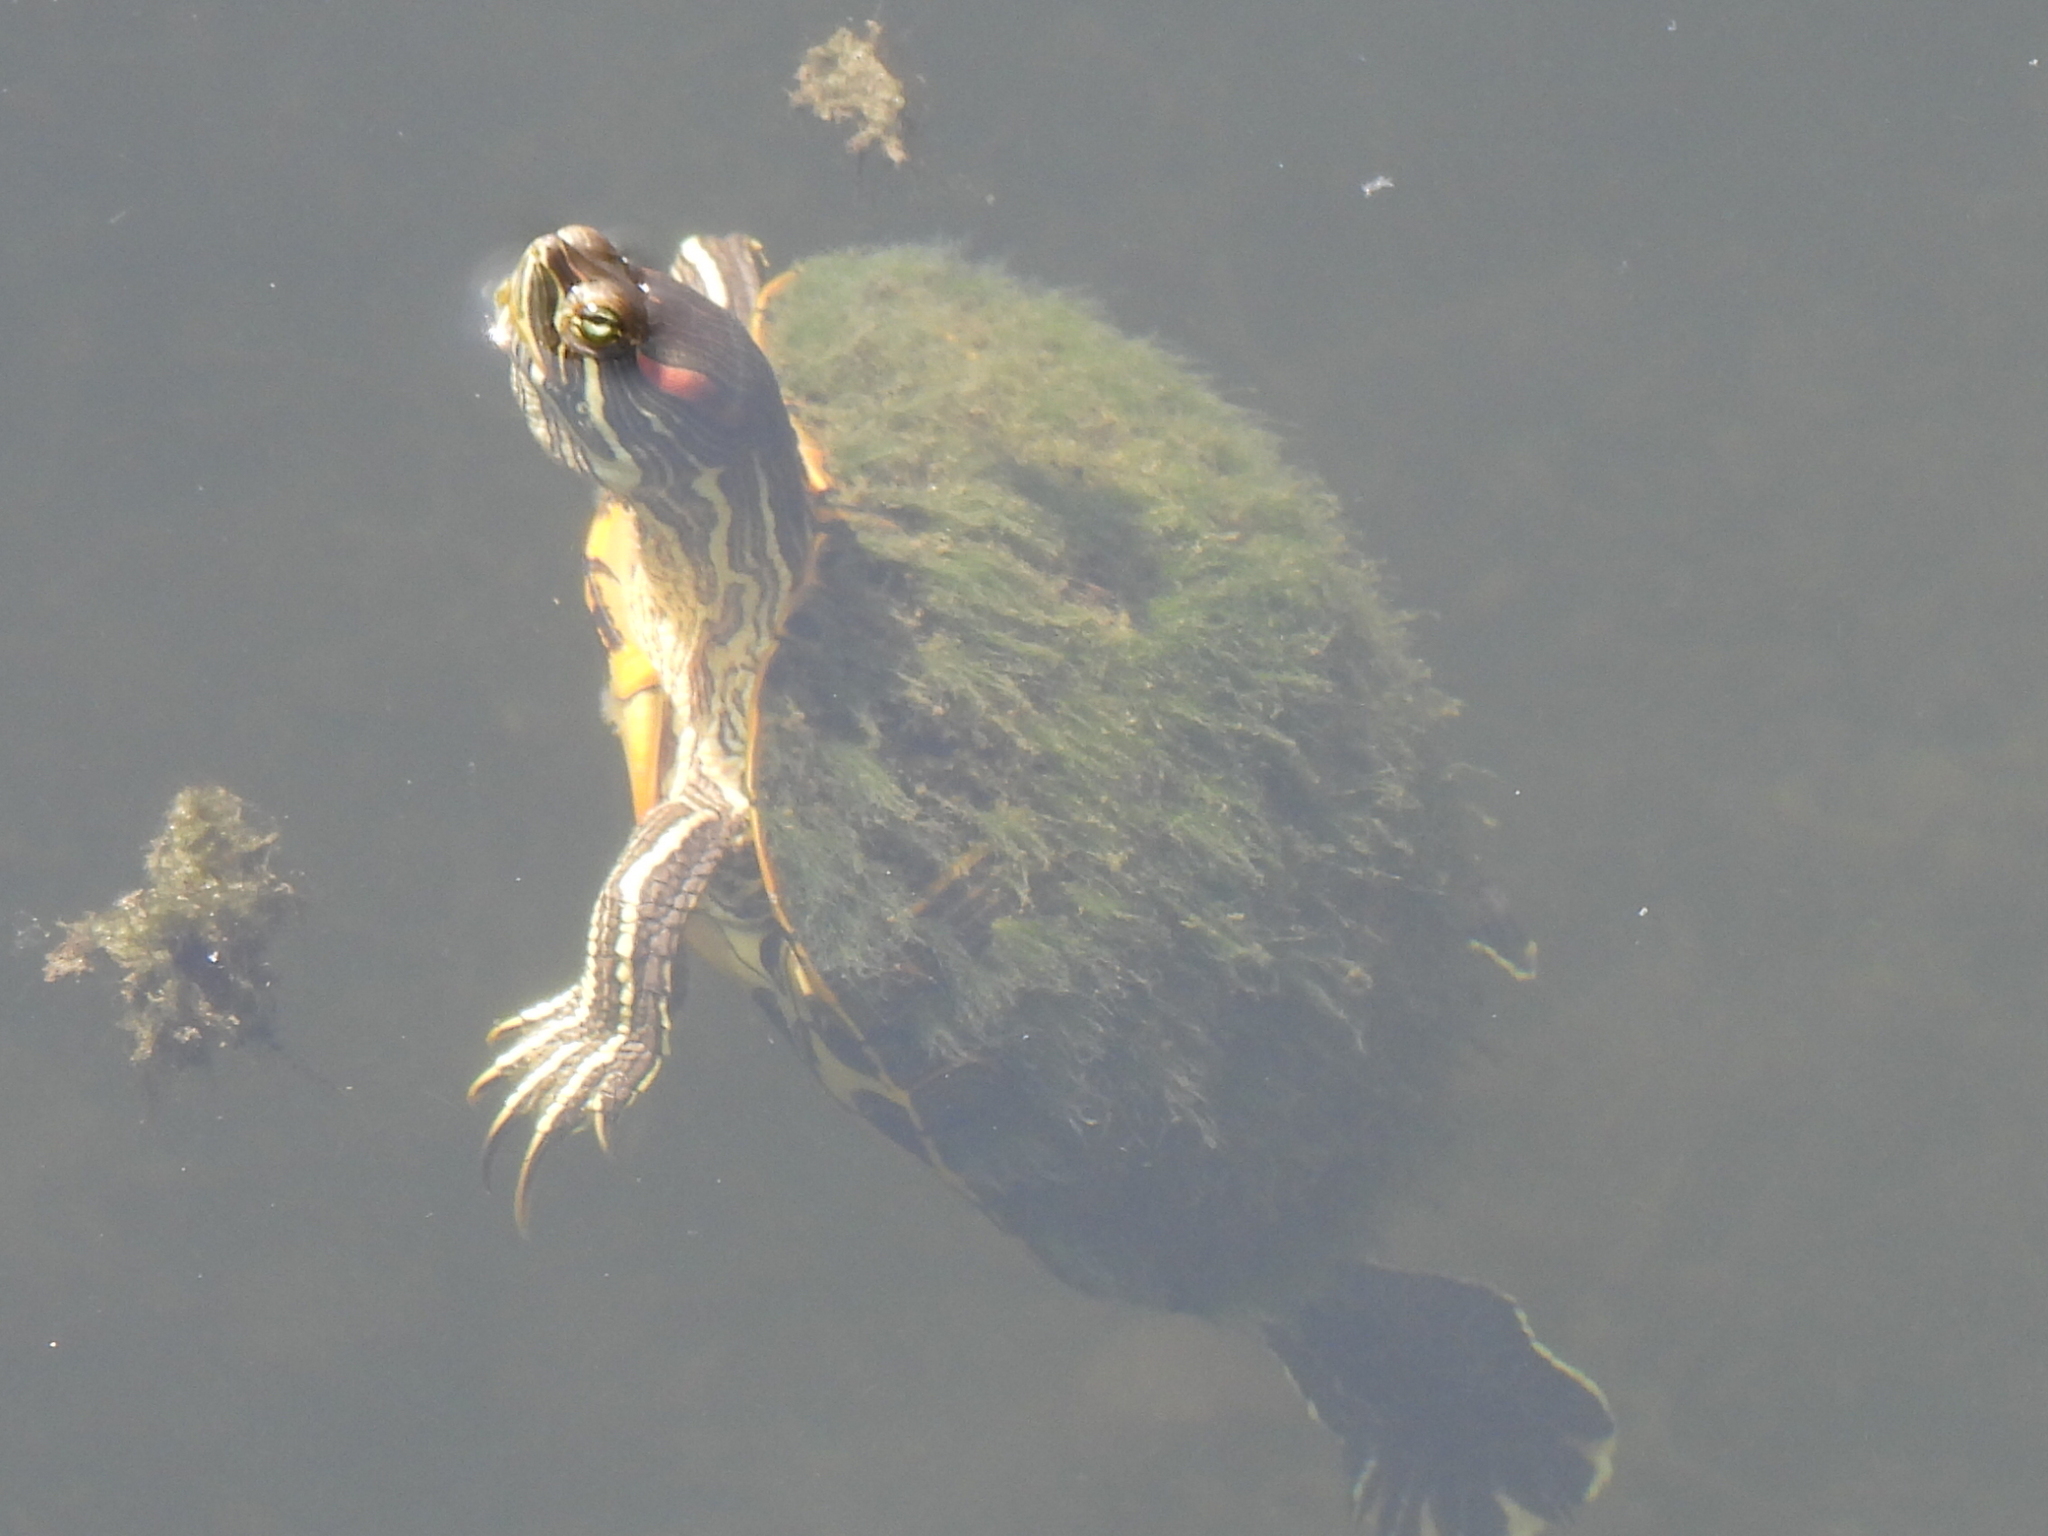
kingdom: Animalia
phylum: Chordata
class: Testudines
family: Emydidae
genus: Trachemys
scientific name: Trachemys scripta
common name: Slider
